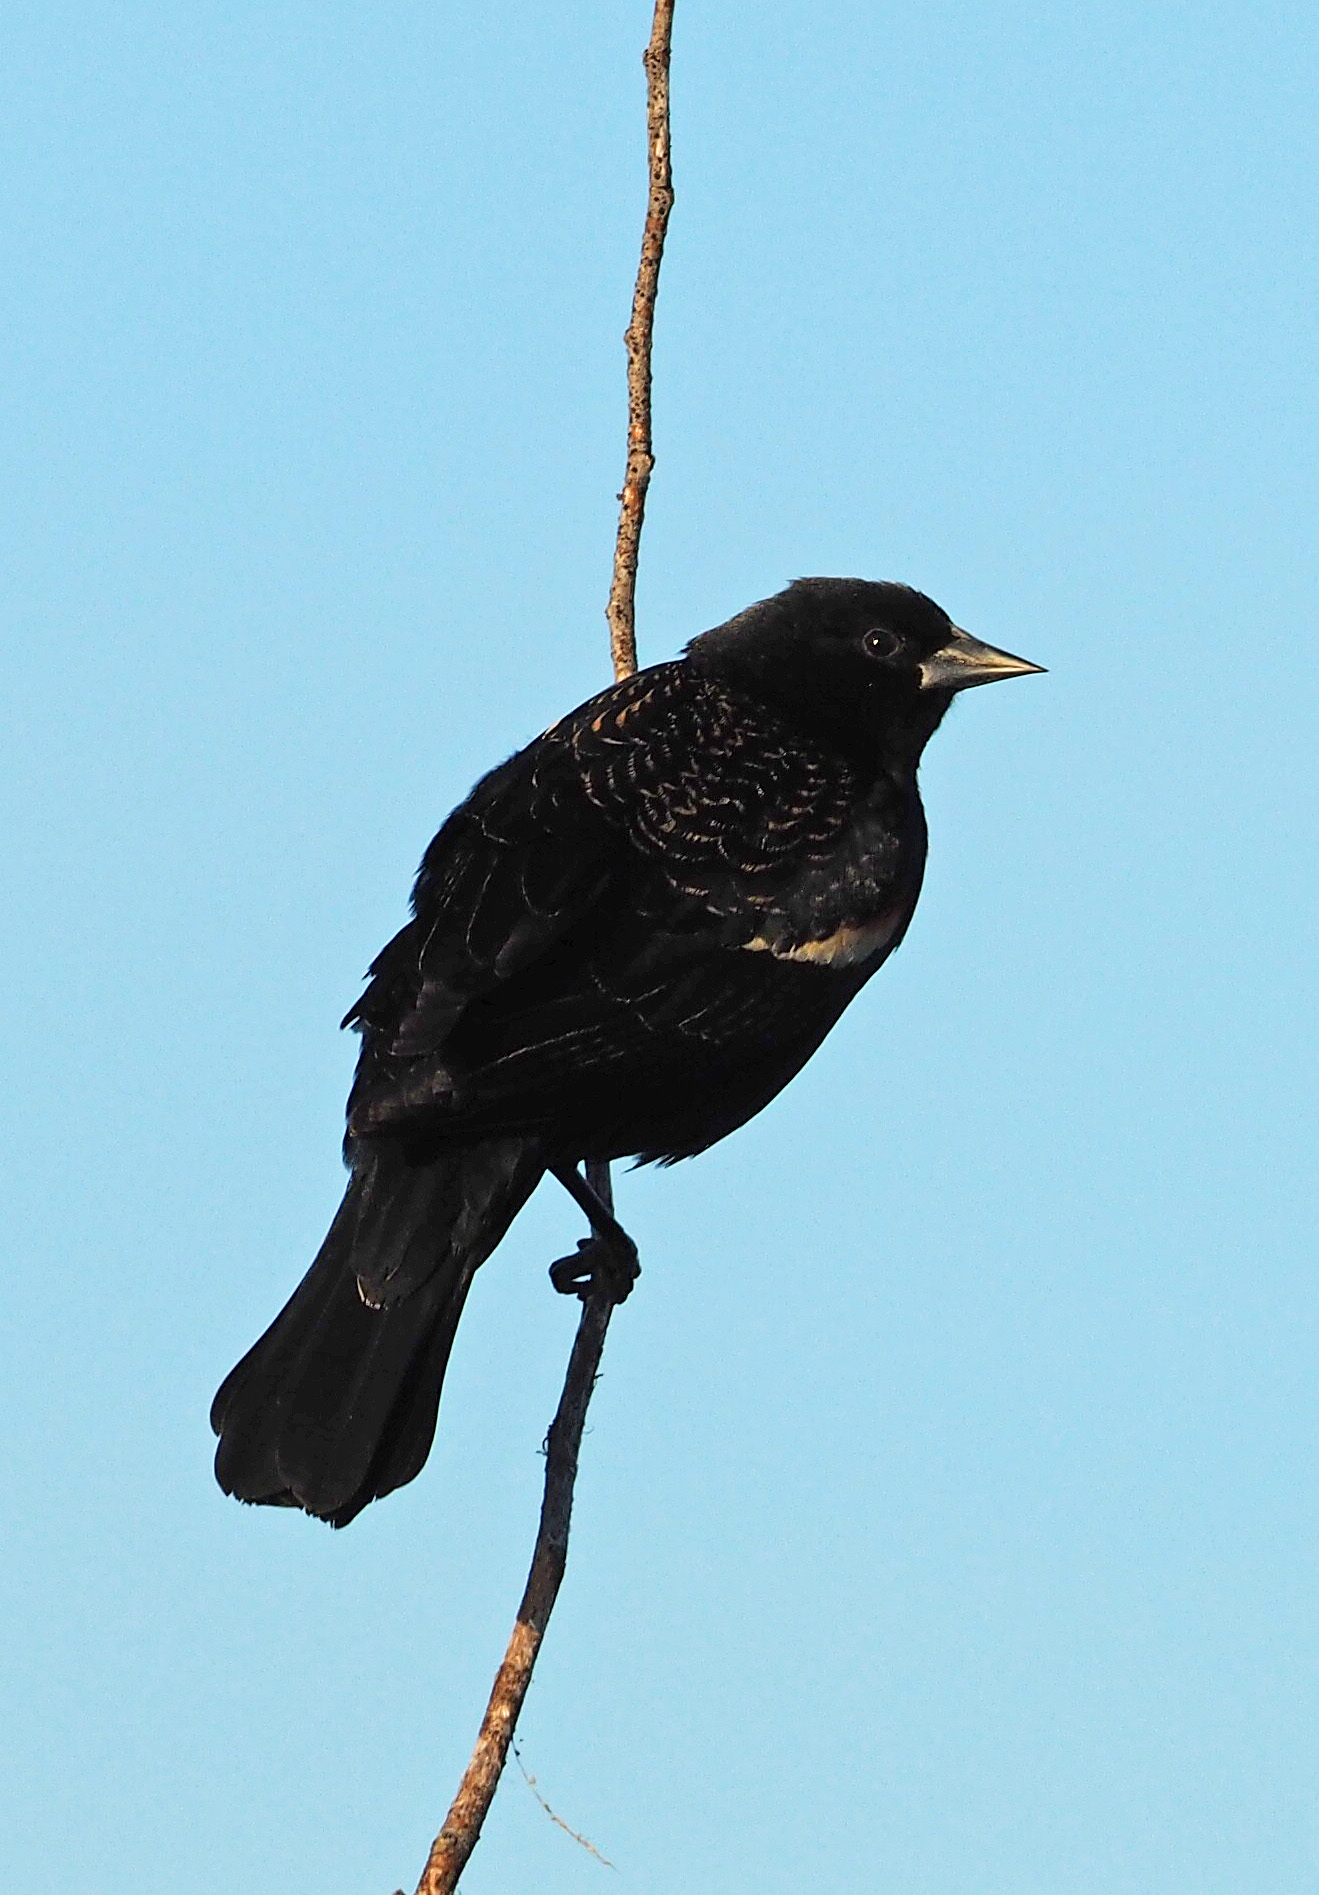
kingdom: Animalia
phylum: Chordata
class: Aves
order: Passeriformes
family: Icteridae
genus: Agelaius
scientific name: Agelaius phoeniceus
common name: Red-winged blackbird
